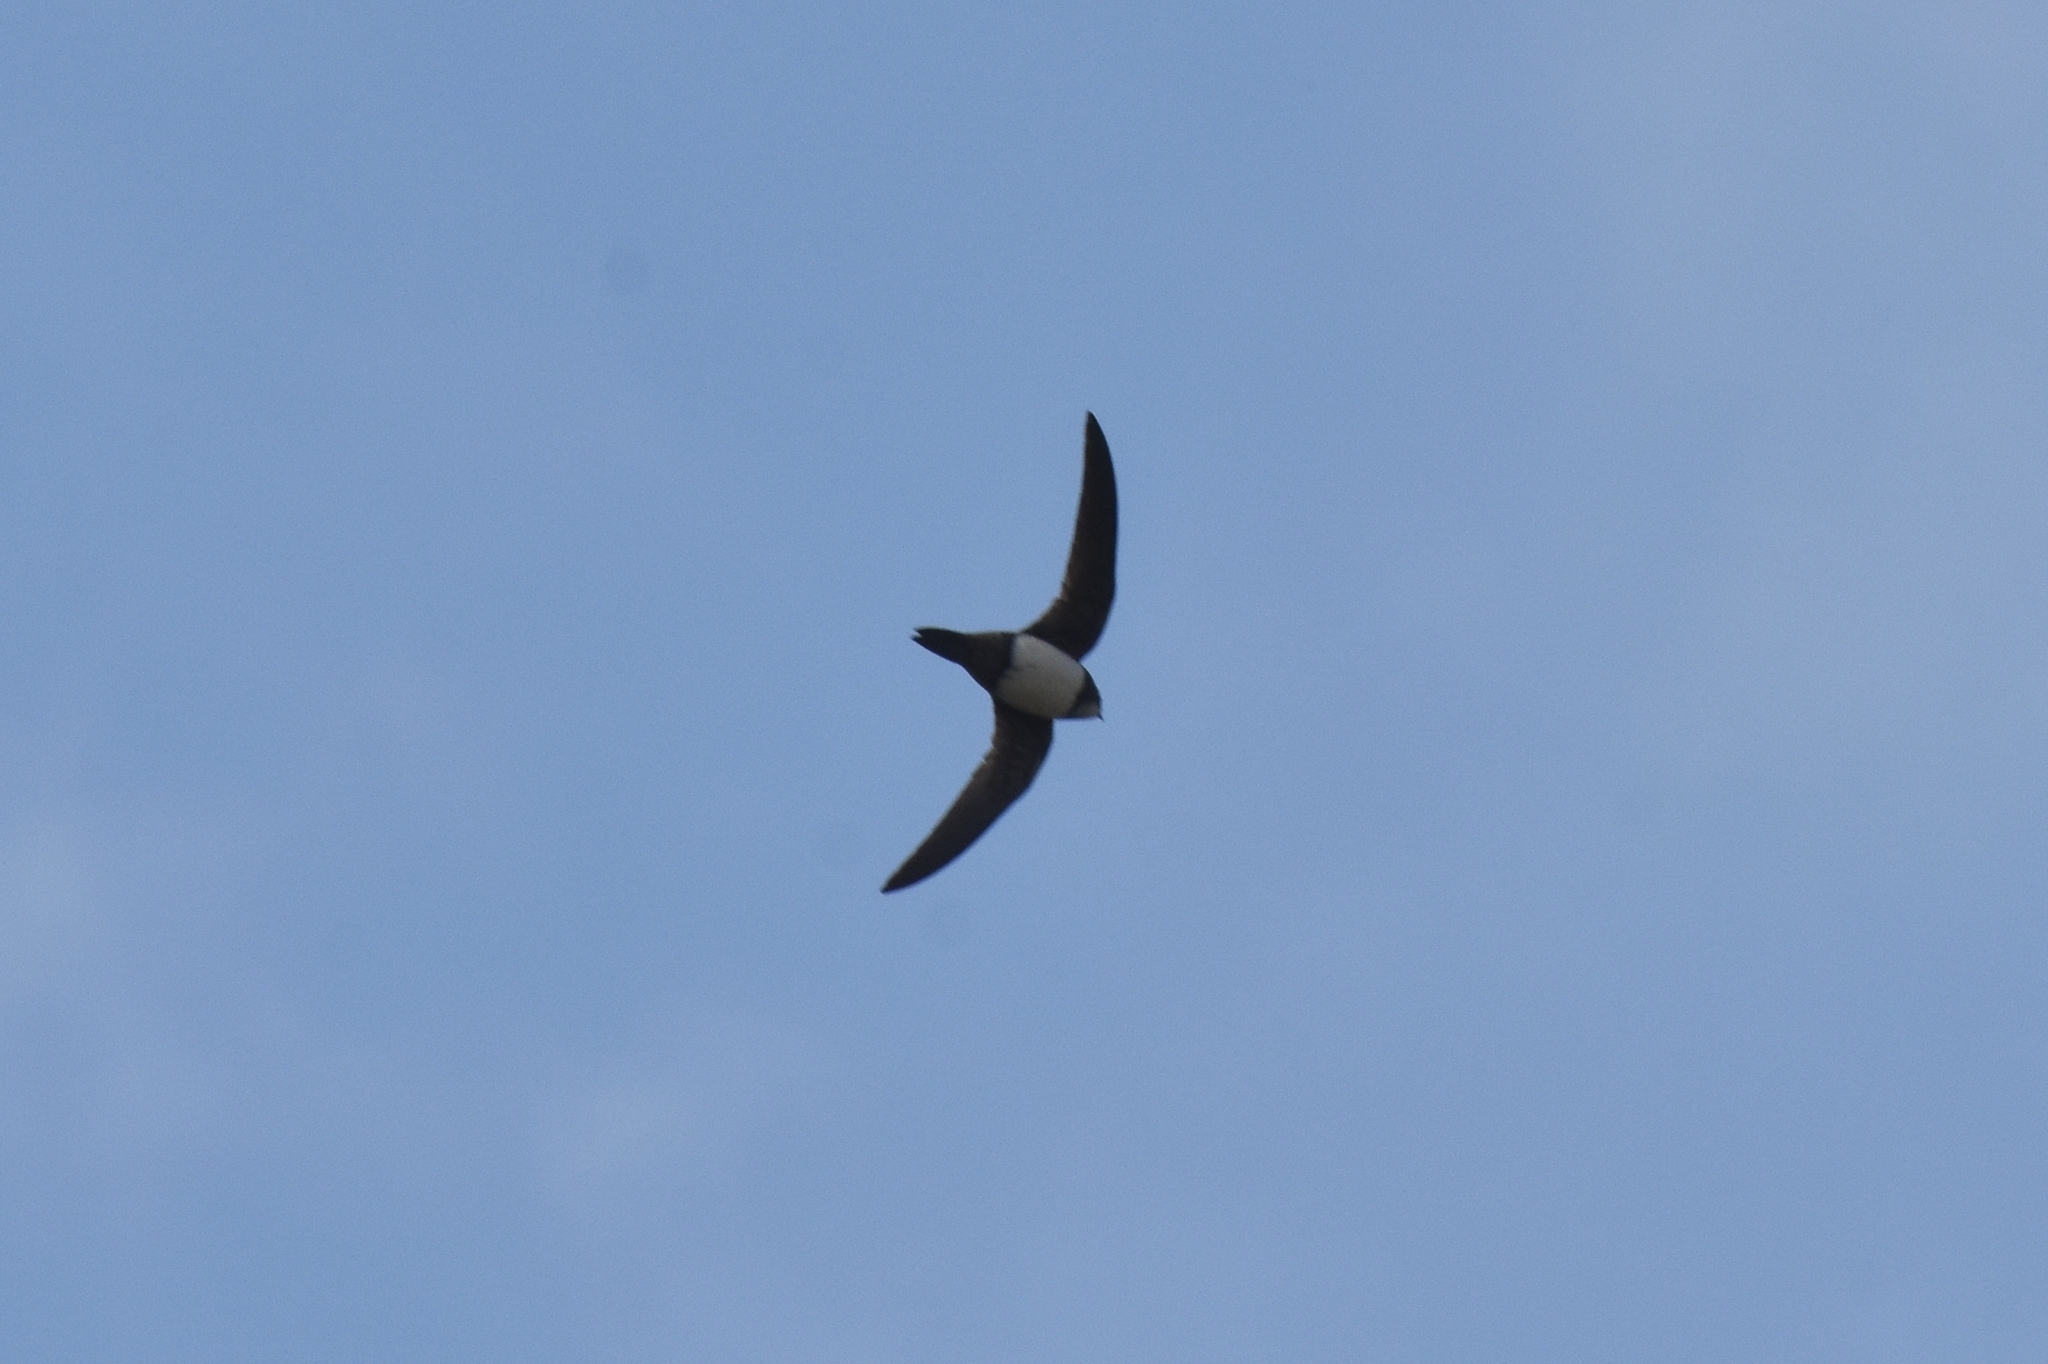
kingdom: Animalia
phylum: Chordata
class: Aves
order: Apodiformes
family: Apodidae
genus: Tachymarptis
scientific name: Tachymarptis melba
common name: Alpine swift
